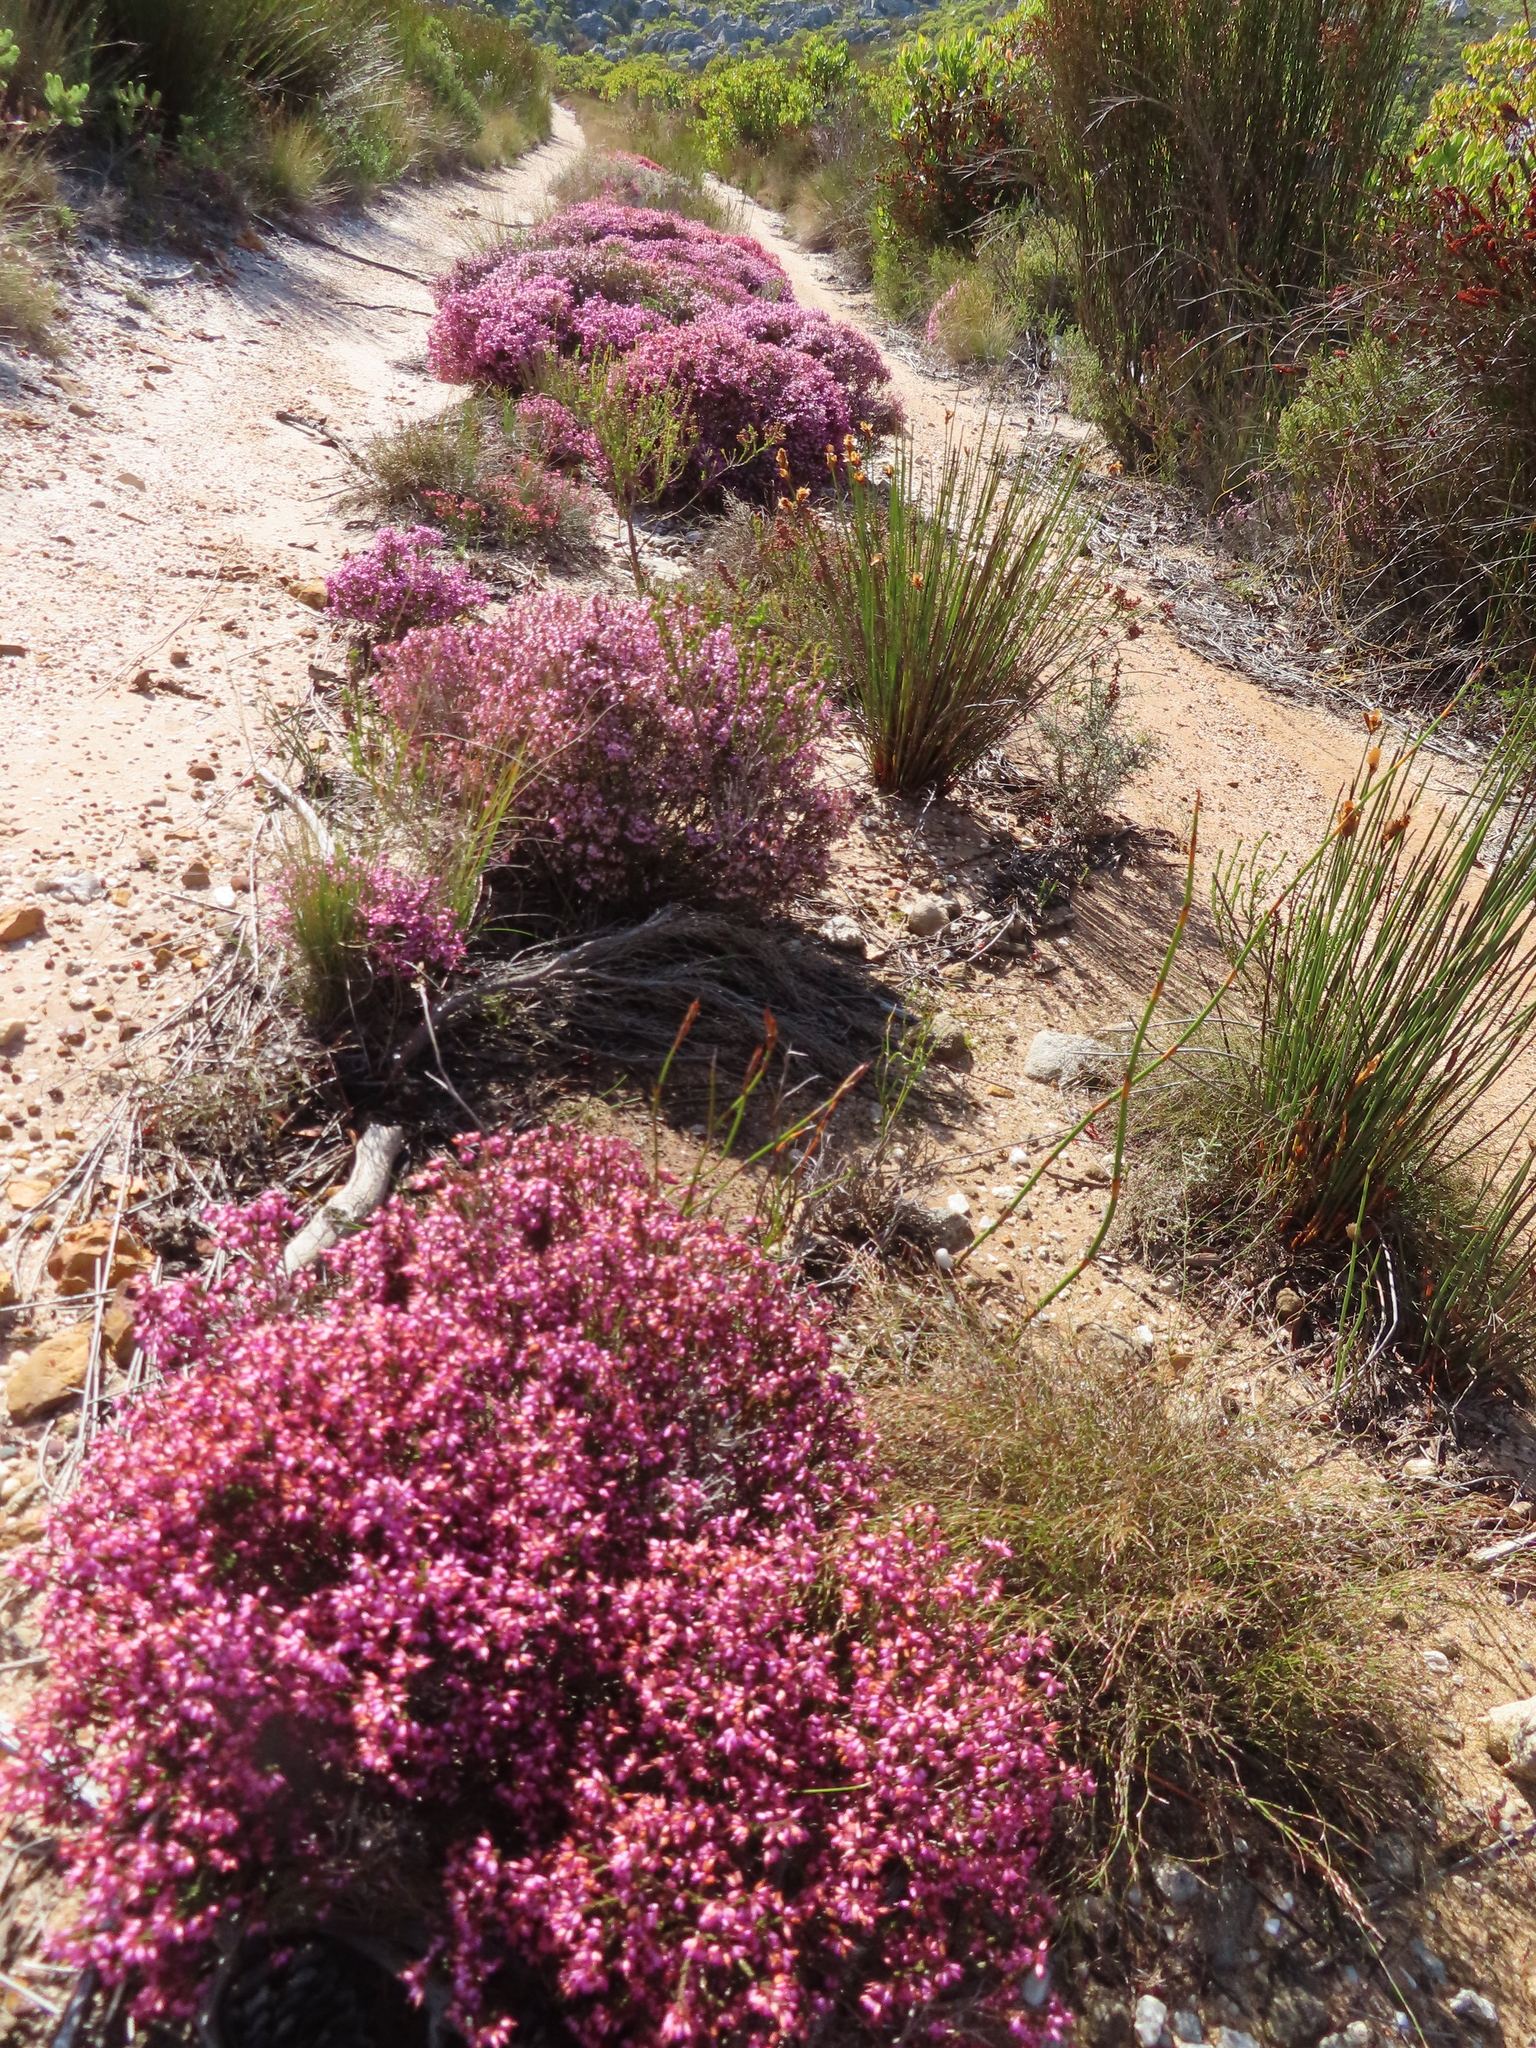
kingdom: Plantae
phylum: Tracheophyta
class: Magnoliopsida
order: Ericales
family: Ericaceae
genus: Erica
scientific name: Erica equisetifolia
